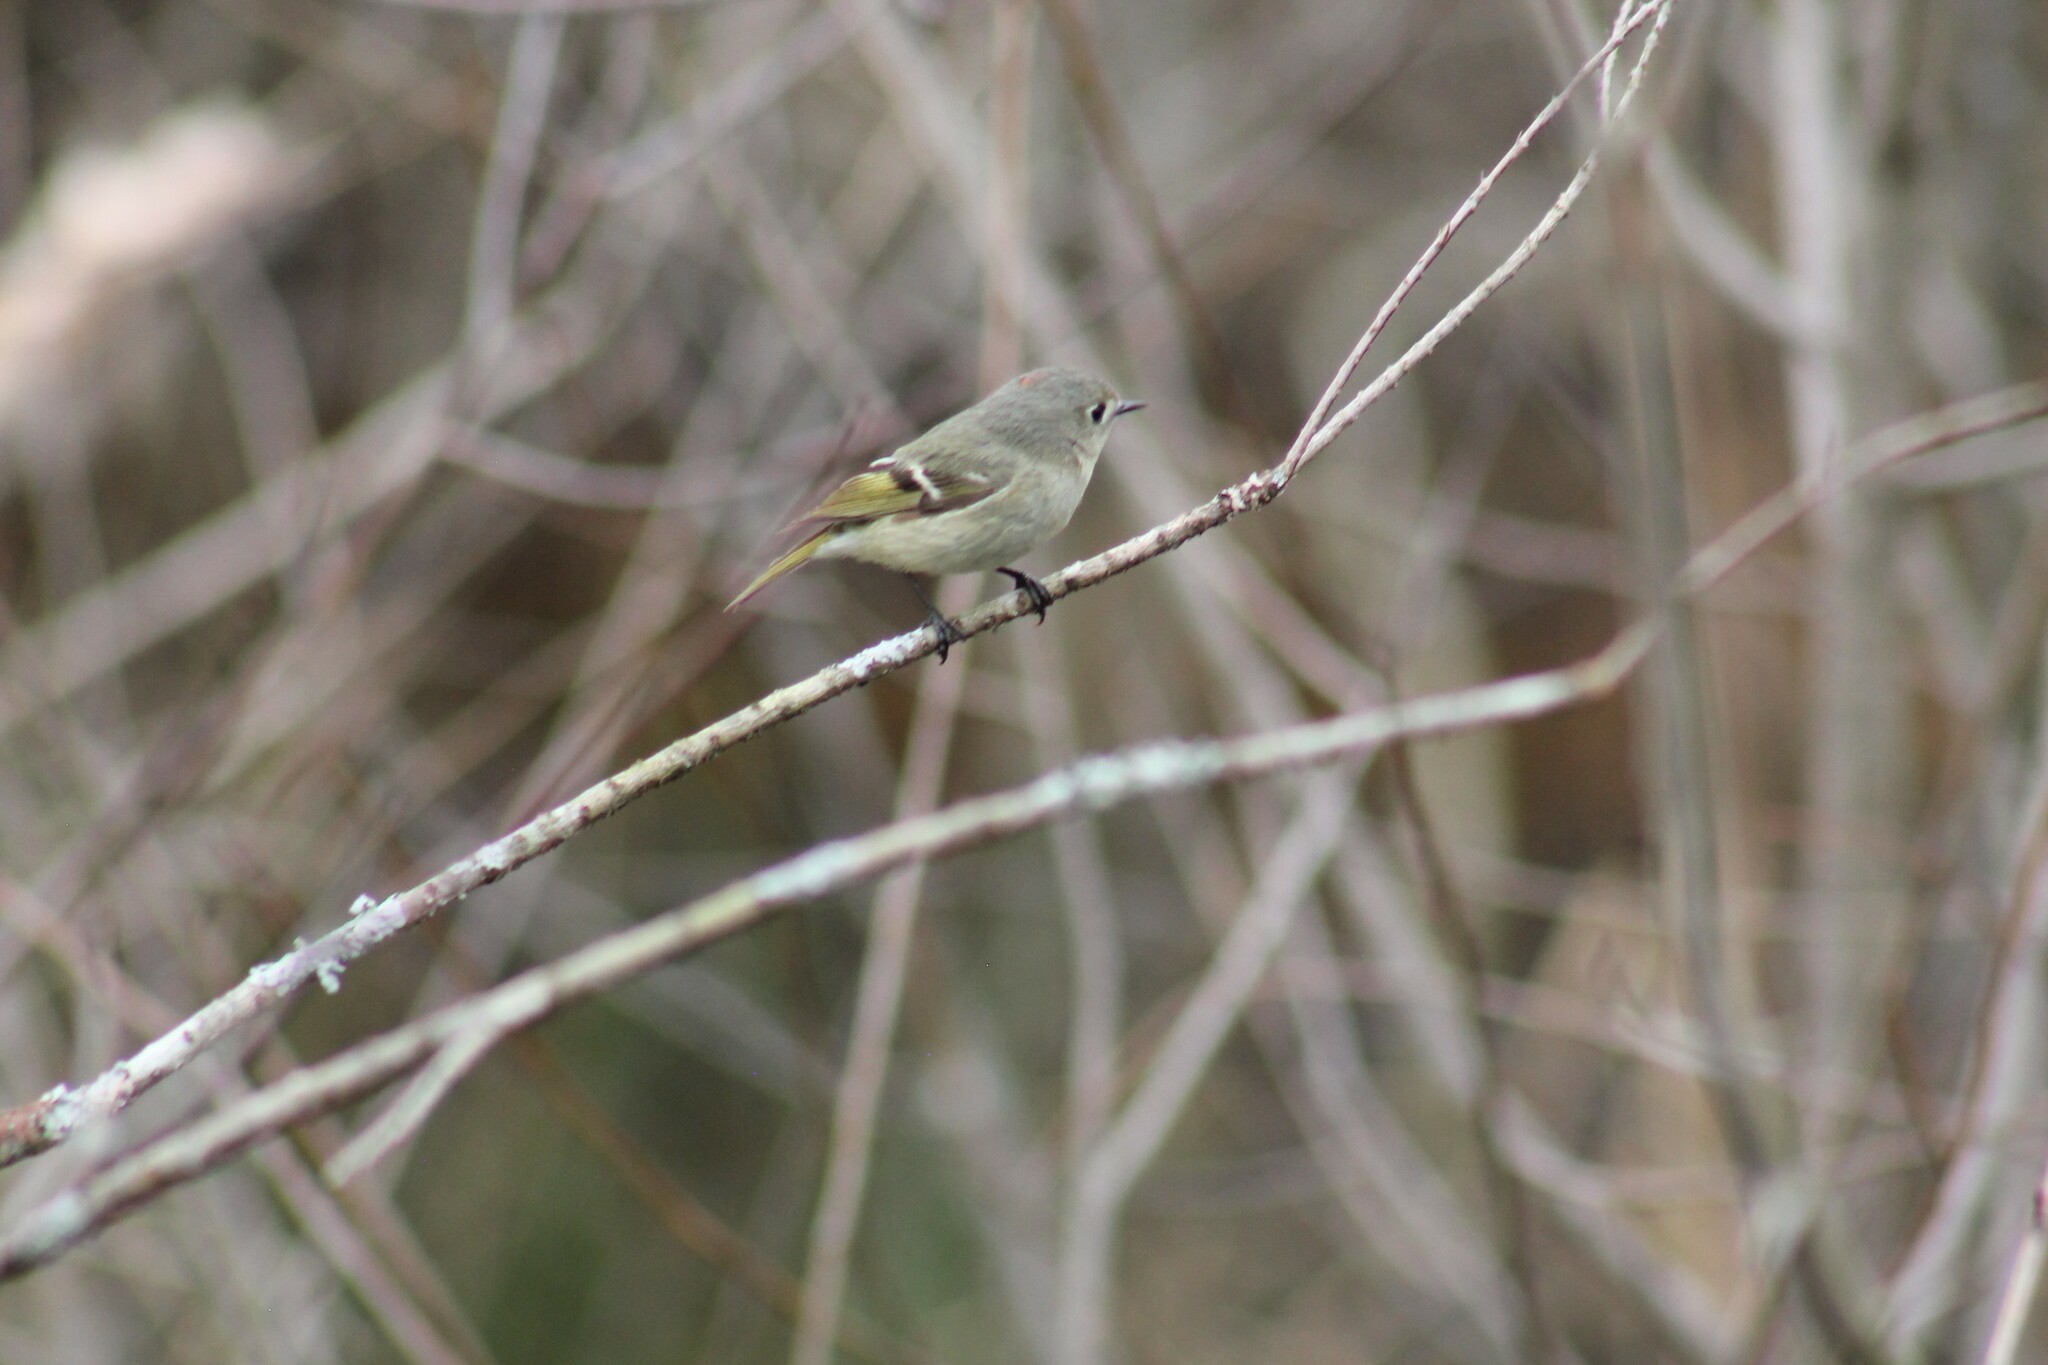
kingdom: Animalia
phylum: Chordata
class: Aves
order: Passeriformes
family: Regulidae
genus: Regulus
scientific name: Regulus calendula
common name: Ruby-crowned kinglet
